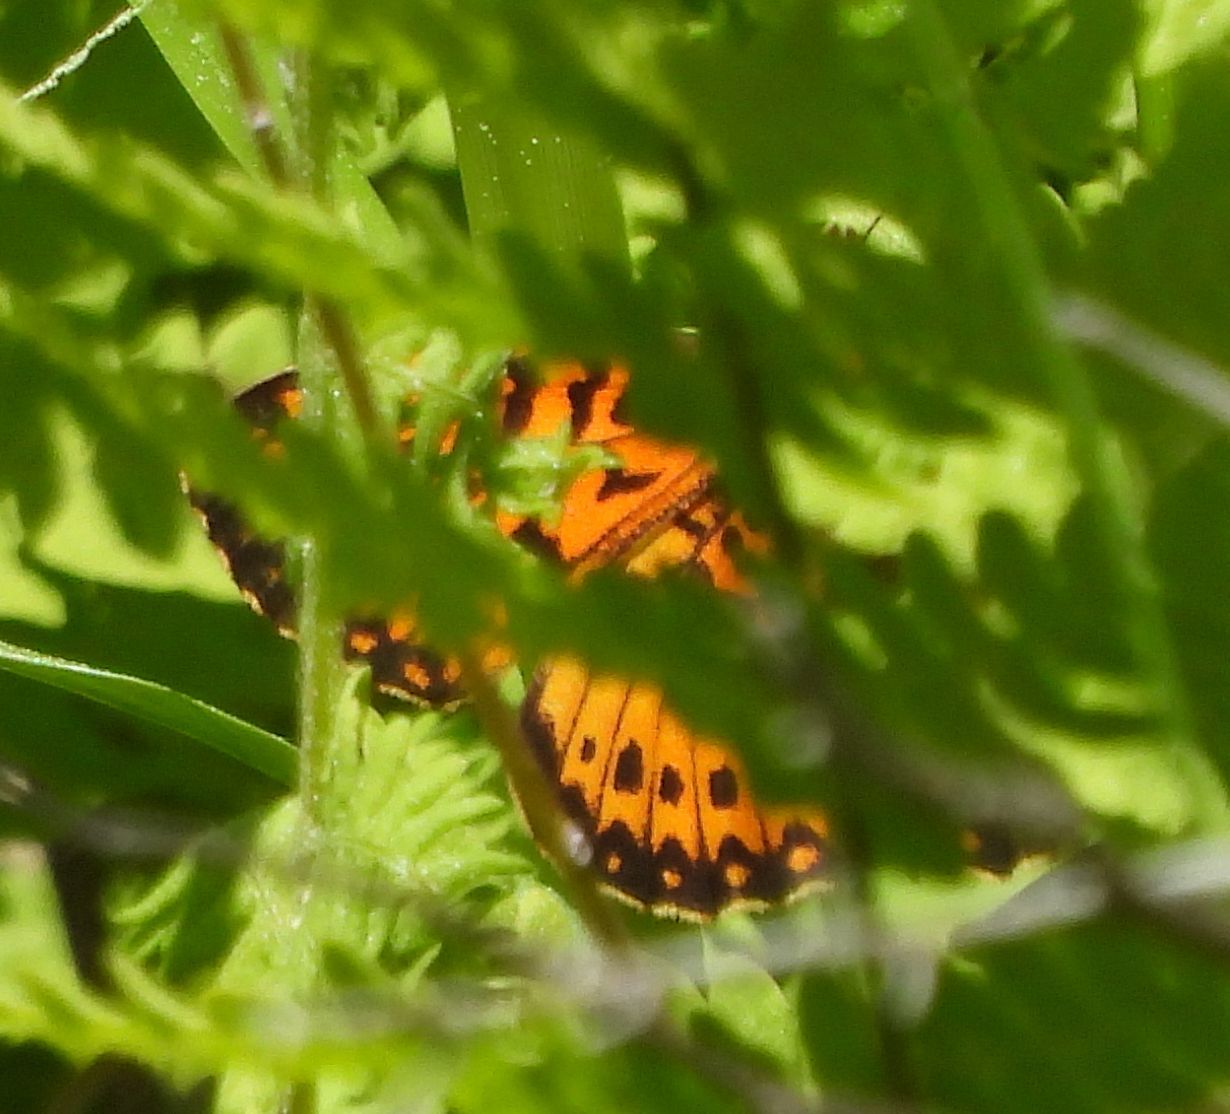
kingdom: Animalia
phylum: Arthropoda
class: Insecta
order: Lepidoptera
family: Nymphalidae
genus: Boloria
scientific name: Boloria
